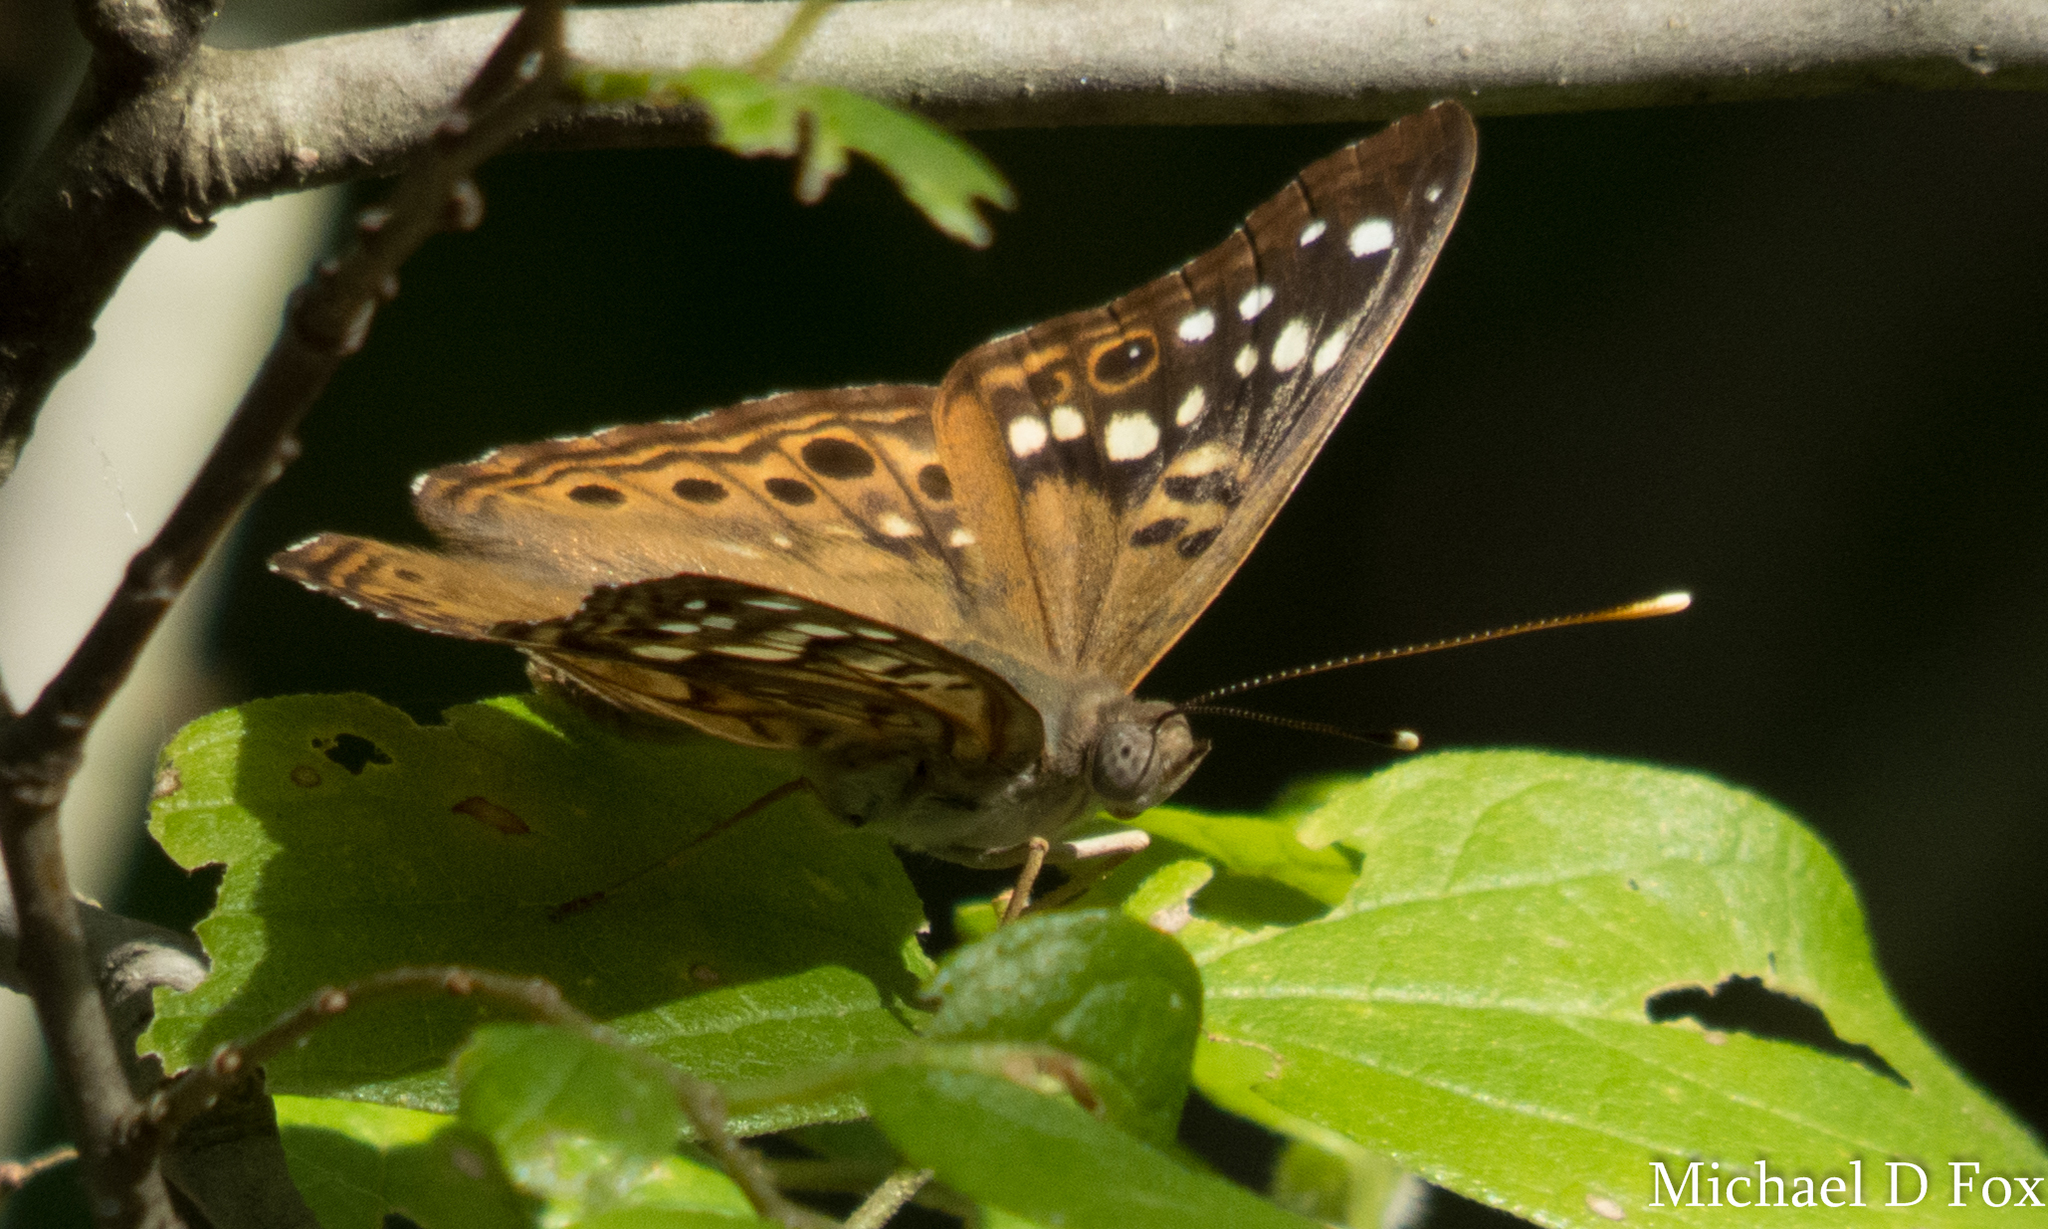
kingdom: Animalia
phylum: Arthropoda
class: Insecta
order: Lepidoptera
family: Nymphalidae
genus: Asterocampa
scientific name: Asterocampa celtis
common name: Hackberry emperor
